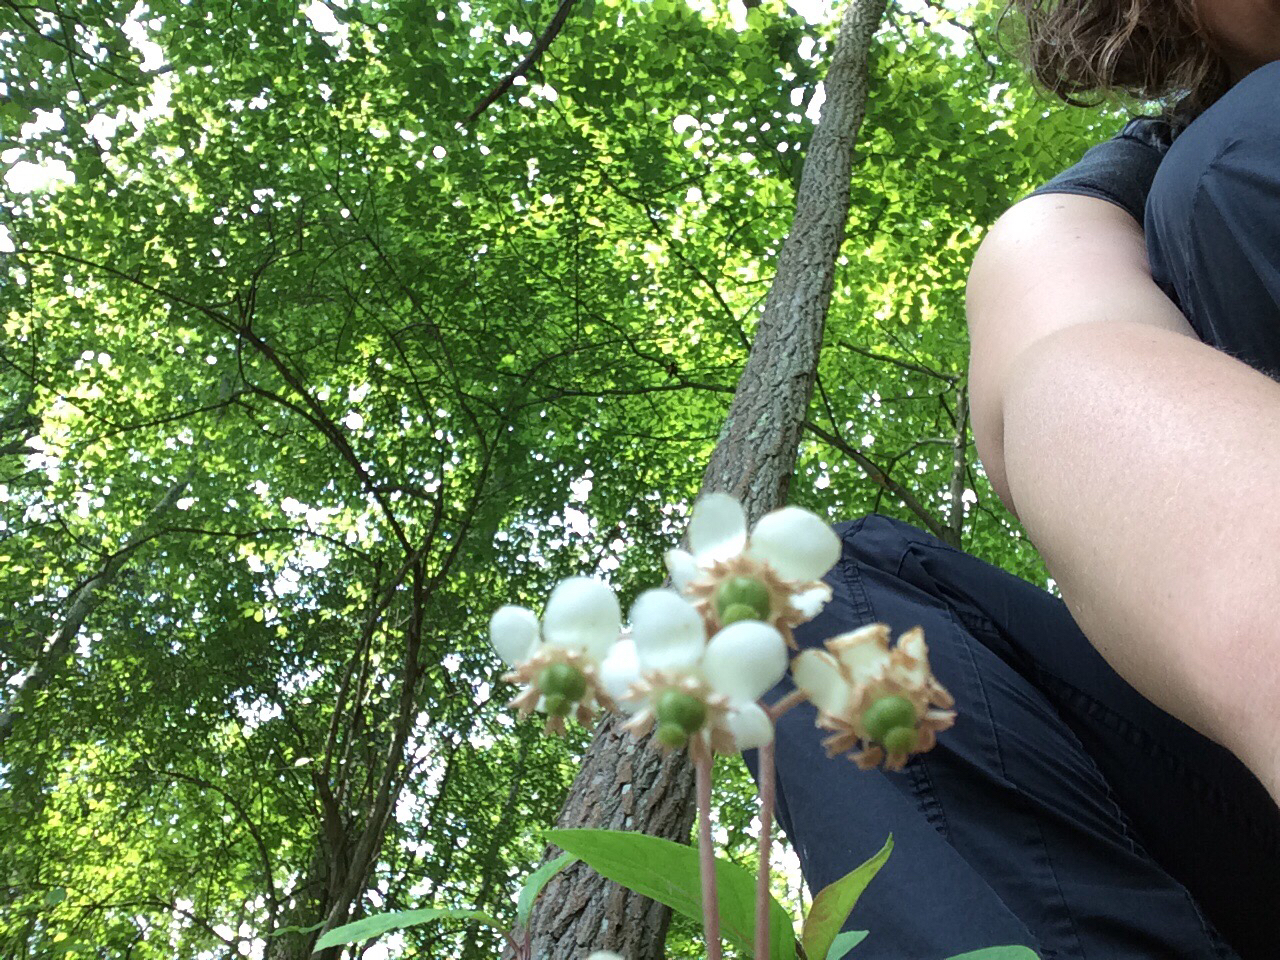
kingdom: Plantae
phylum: Tracheophyta
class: Magnoliopsida
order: Ericales
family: Ericaceae
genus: Chimaphila
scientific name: Chimaphila maculata
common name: Spotted pipsissewa
